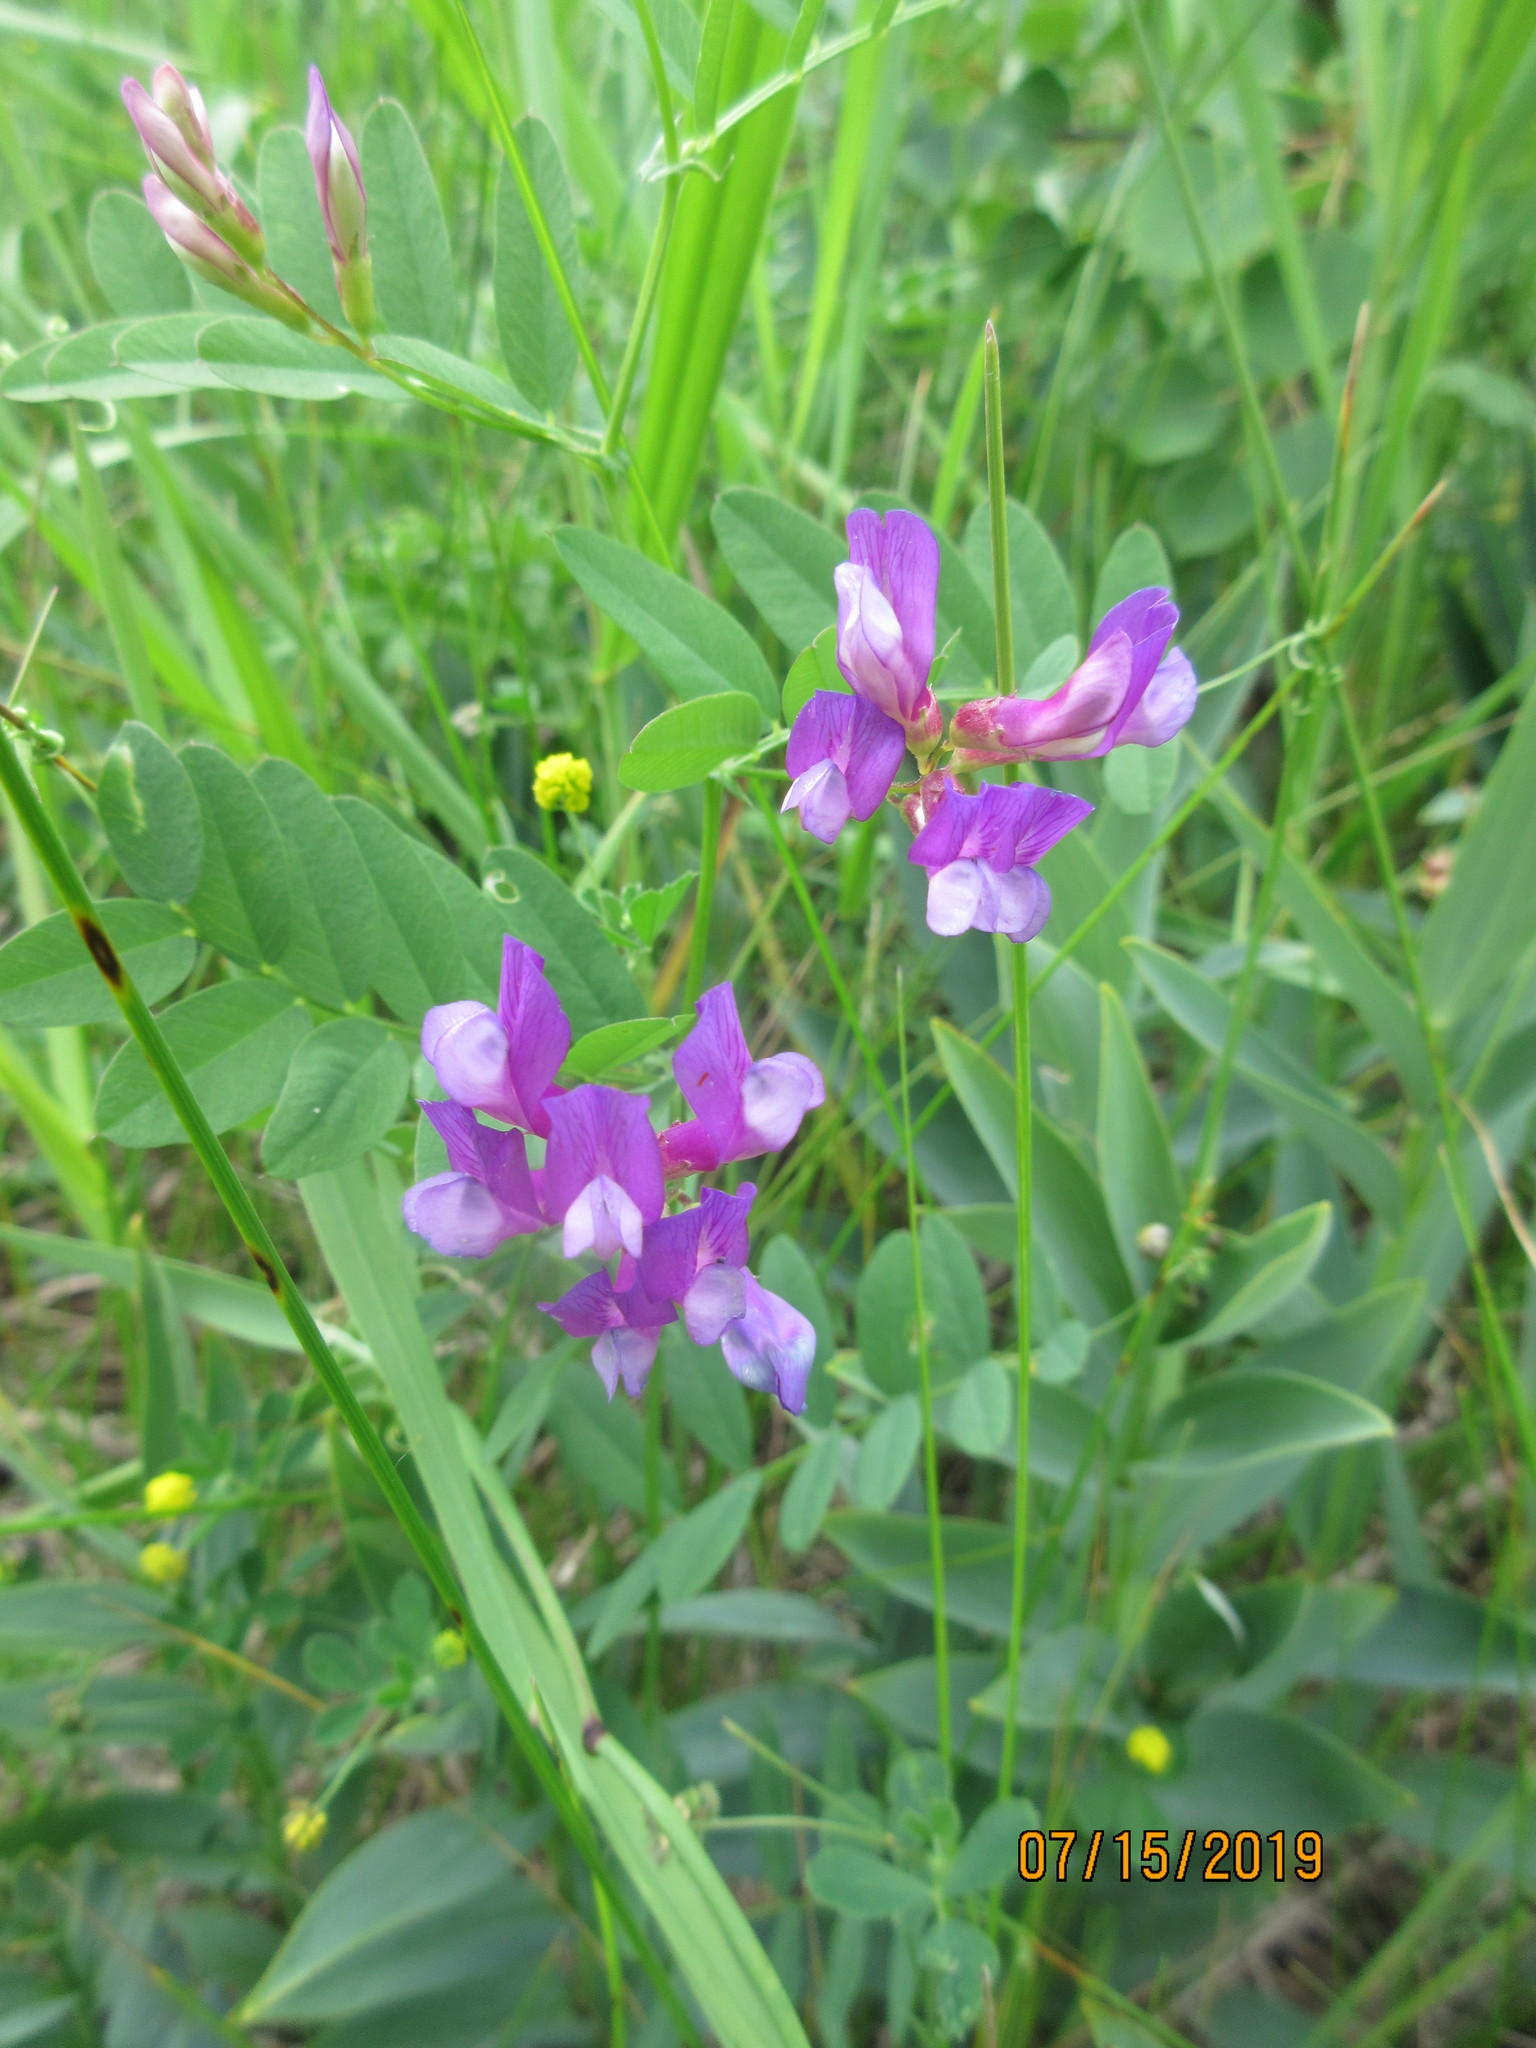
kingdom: Plantae
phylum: Tracheophyta
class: Magnoliopsida
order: Fabales
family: Fabaceae
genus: Vicia
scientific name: Vicia americana
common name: American vetch
